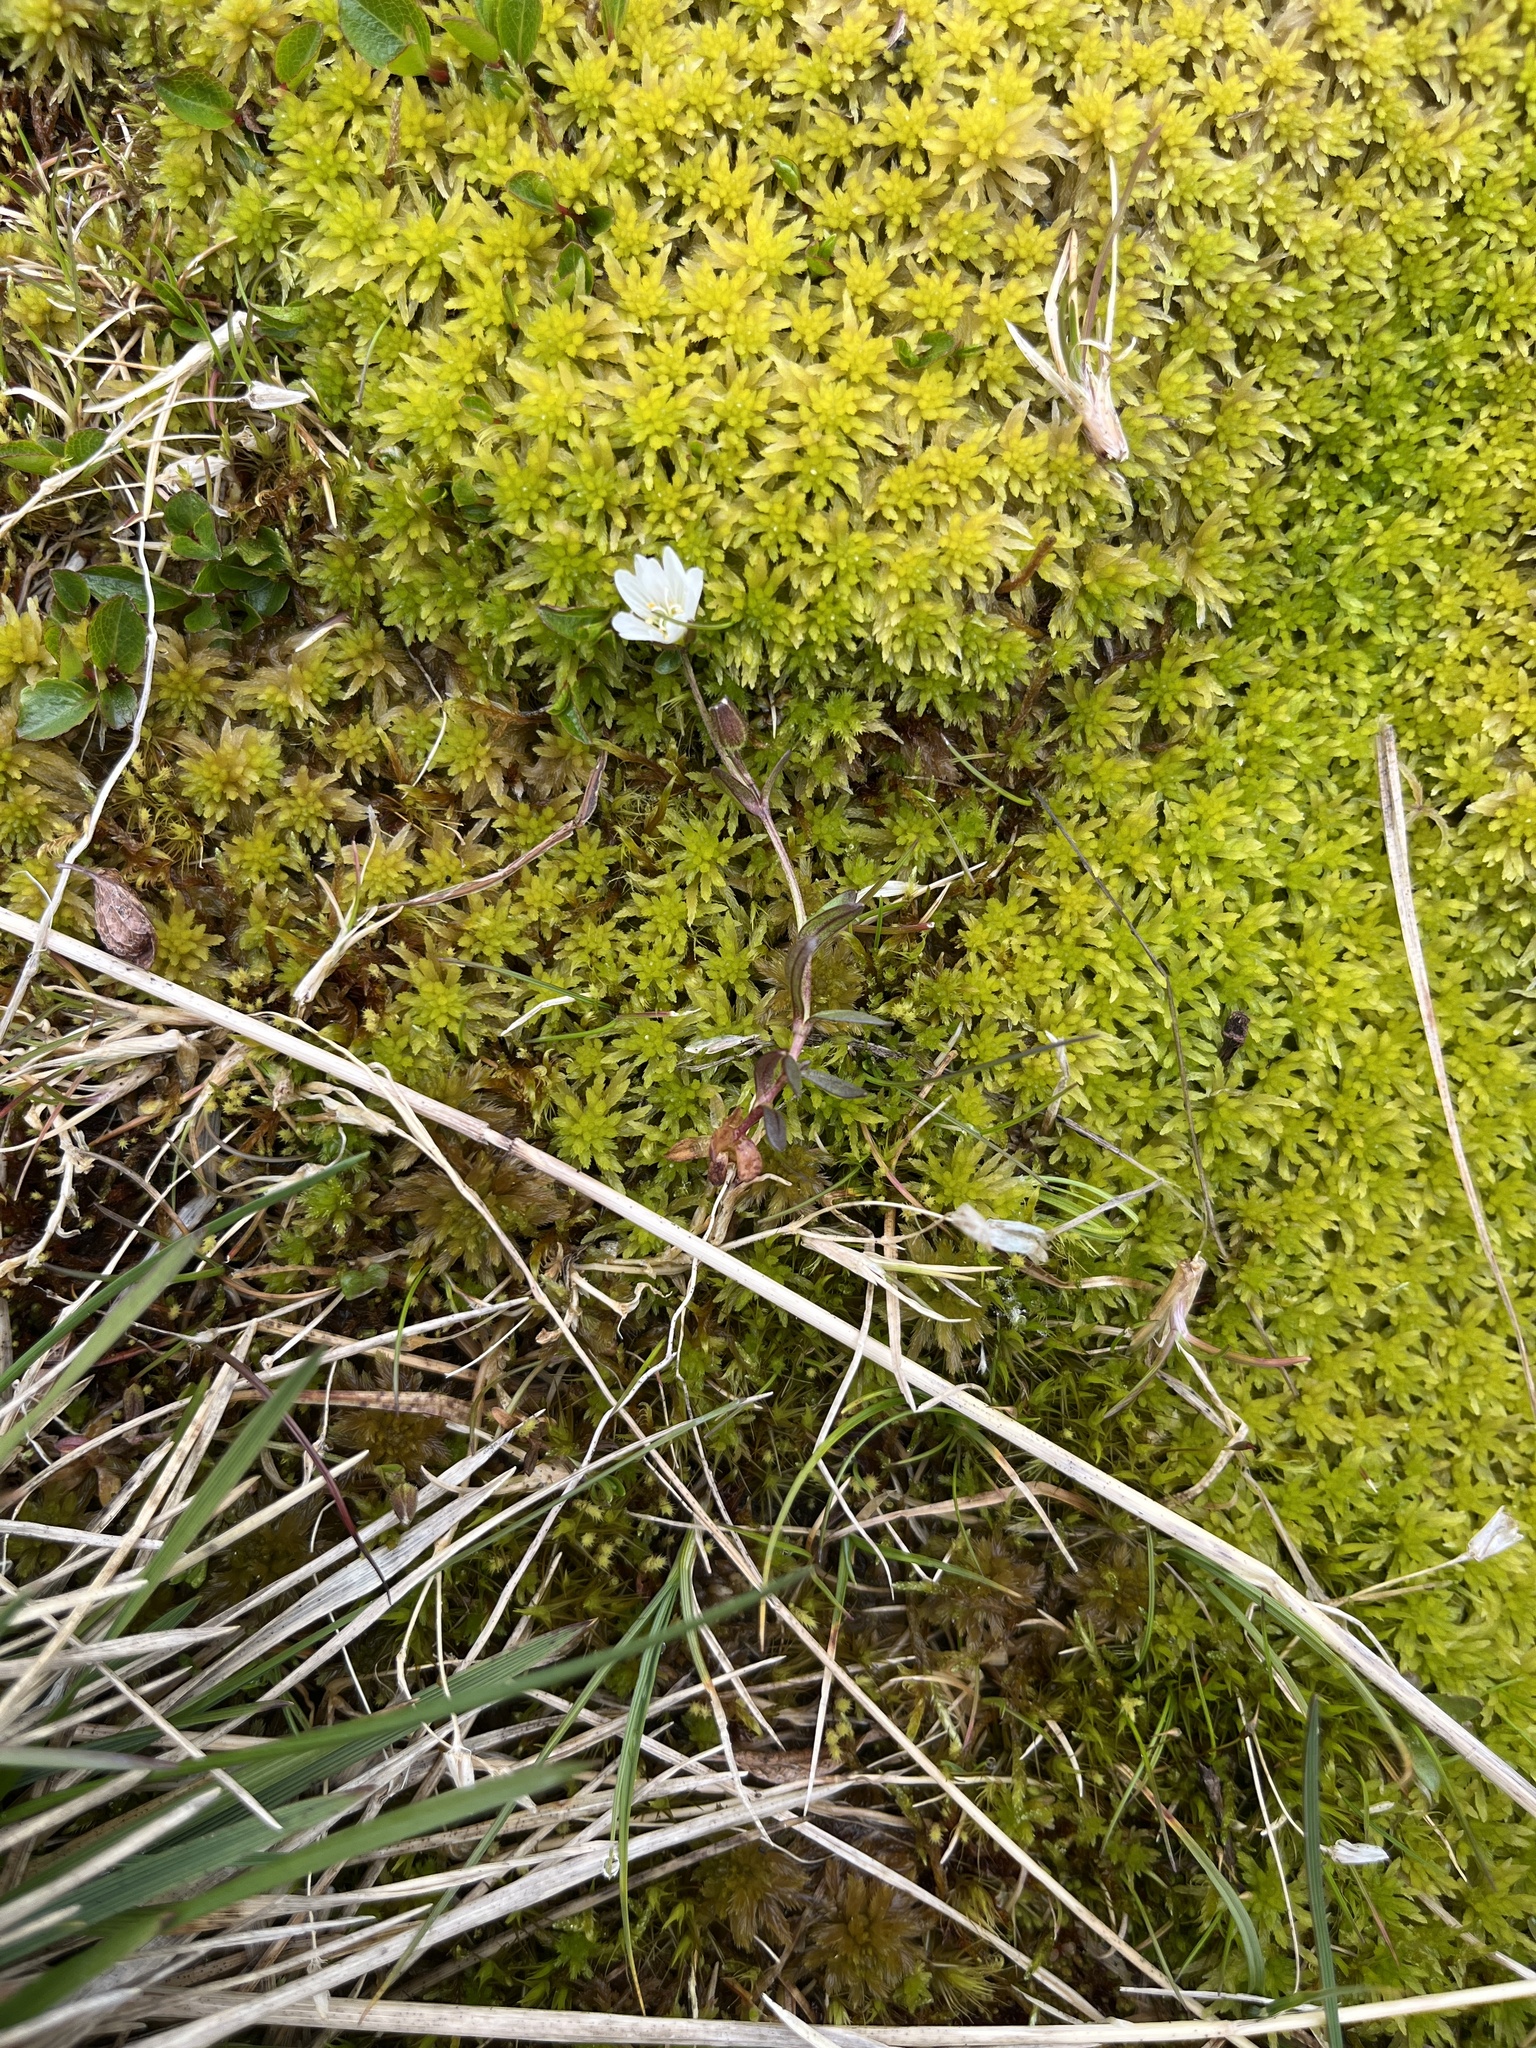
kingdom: Plantae
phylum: Tracheophyta
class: Magnoliopsida
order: Caryophyllales
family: Caryophyllaceae
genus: Dichodon
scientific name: Dichodon cerastoides
